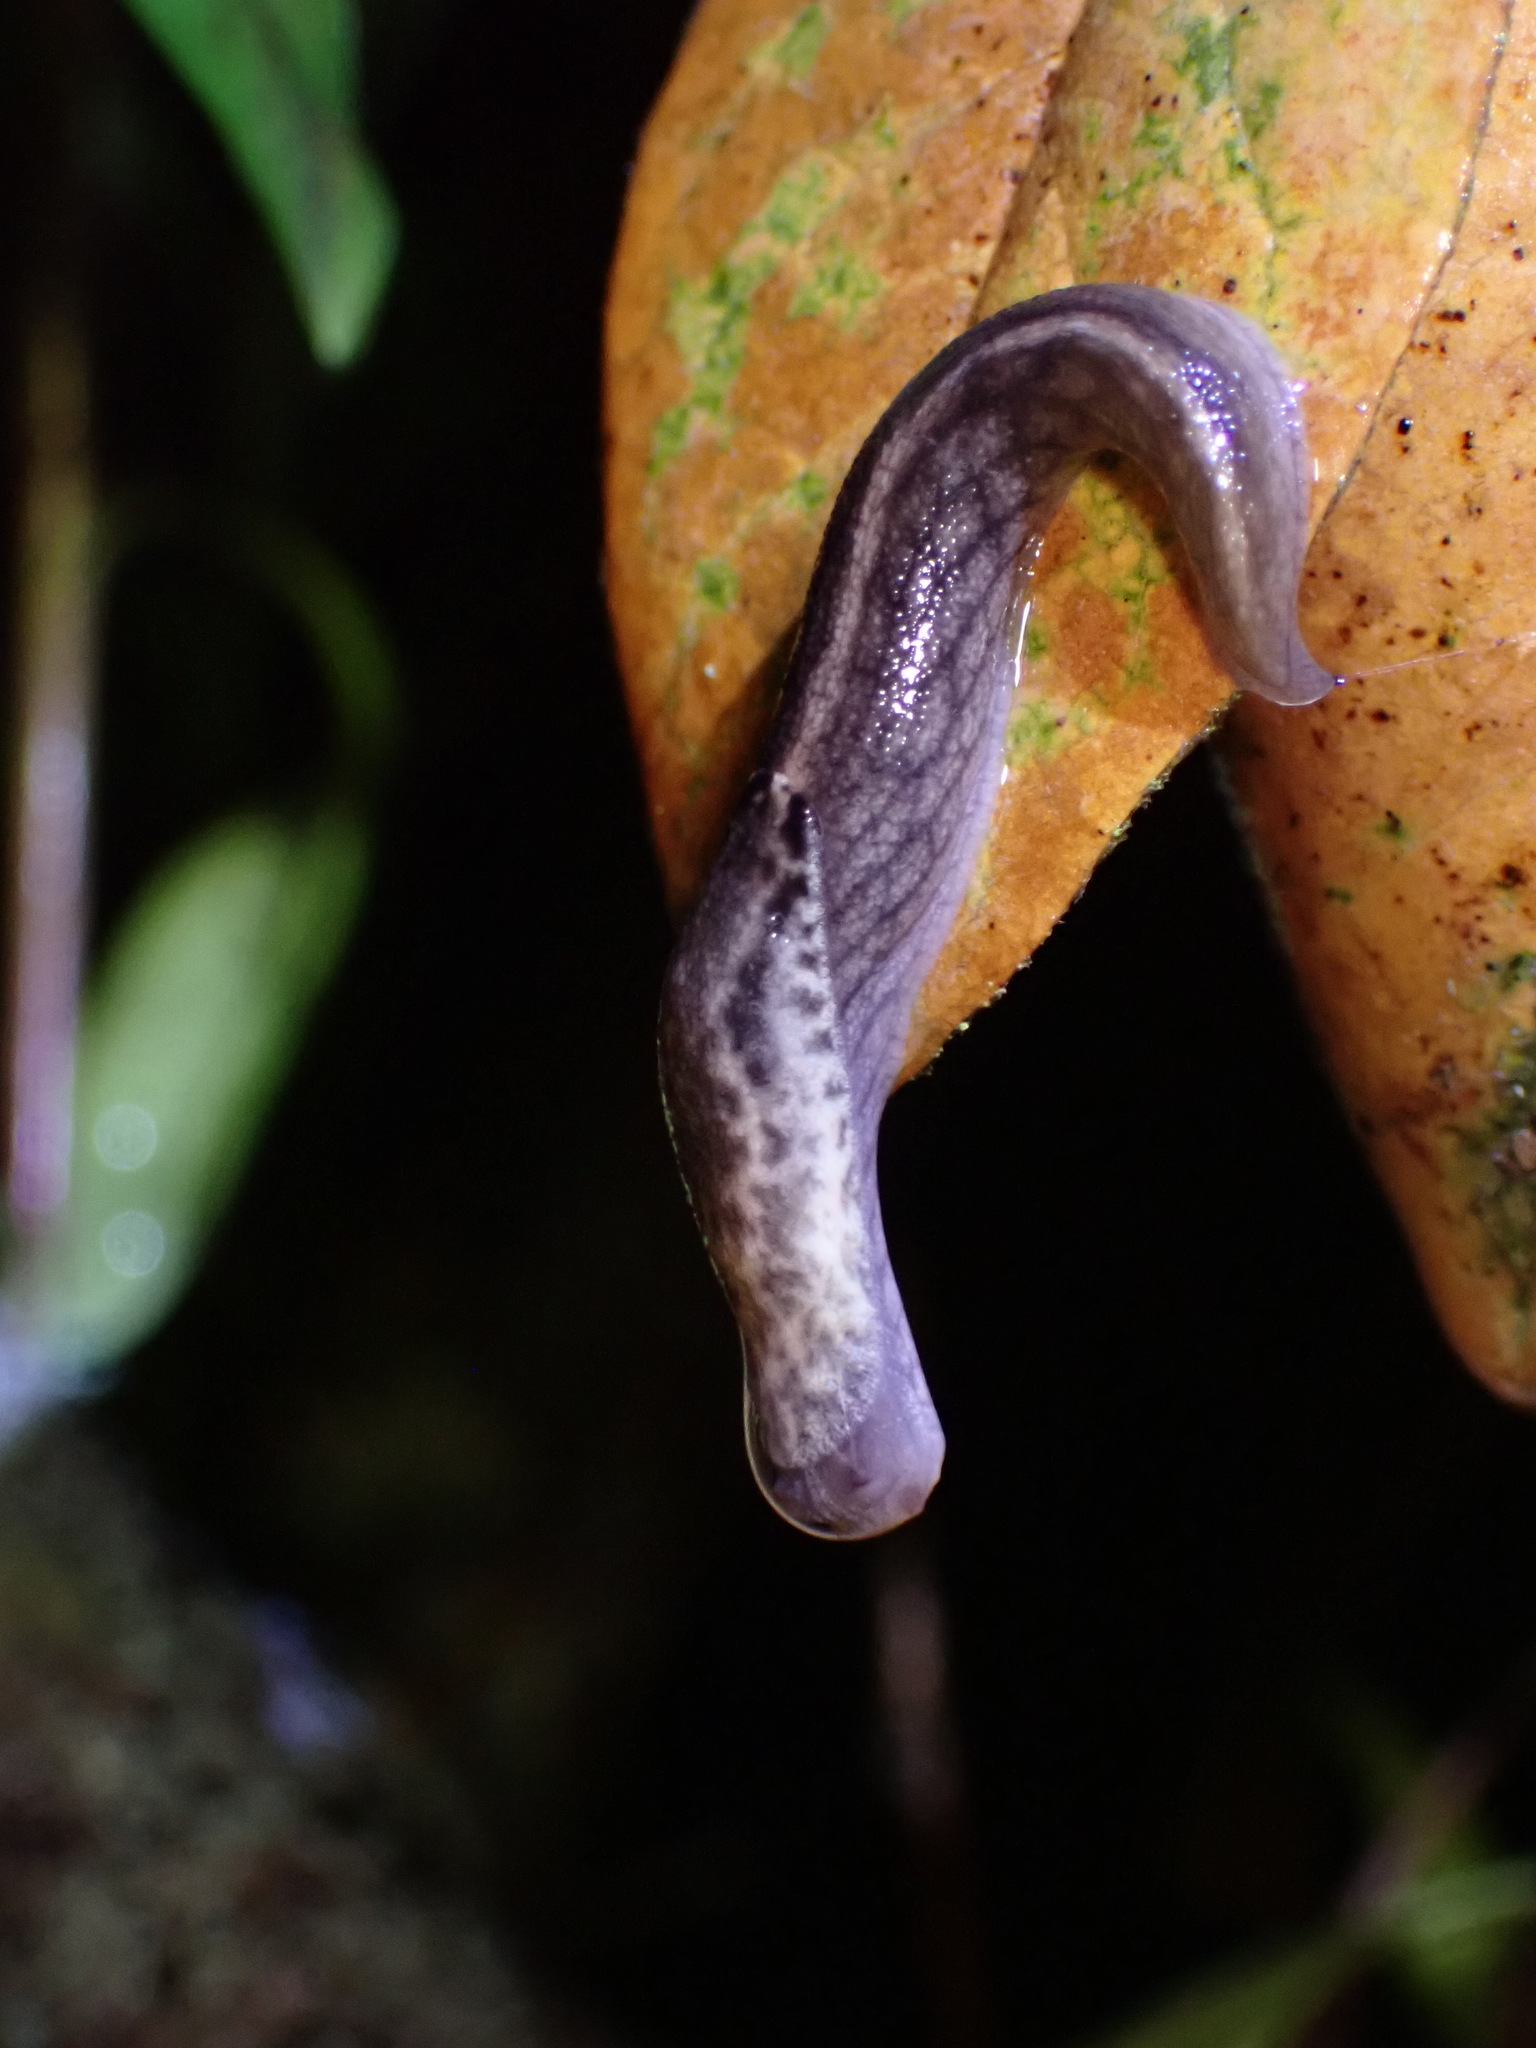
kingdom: Animalia
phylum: Mollusca
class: Gastropoda
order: Stylommatophora
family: Ariolimacidae
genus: Prophysaon
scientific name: Prophysaon andersonii
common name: Reticulate taildropper
